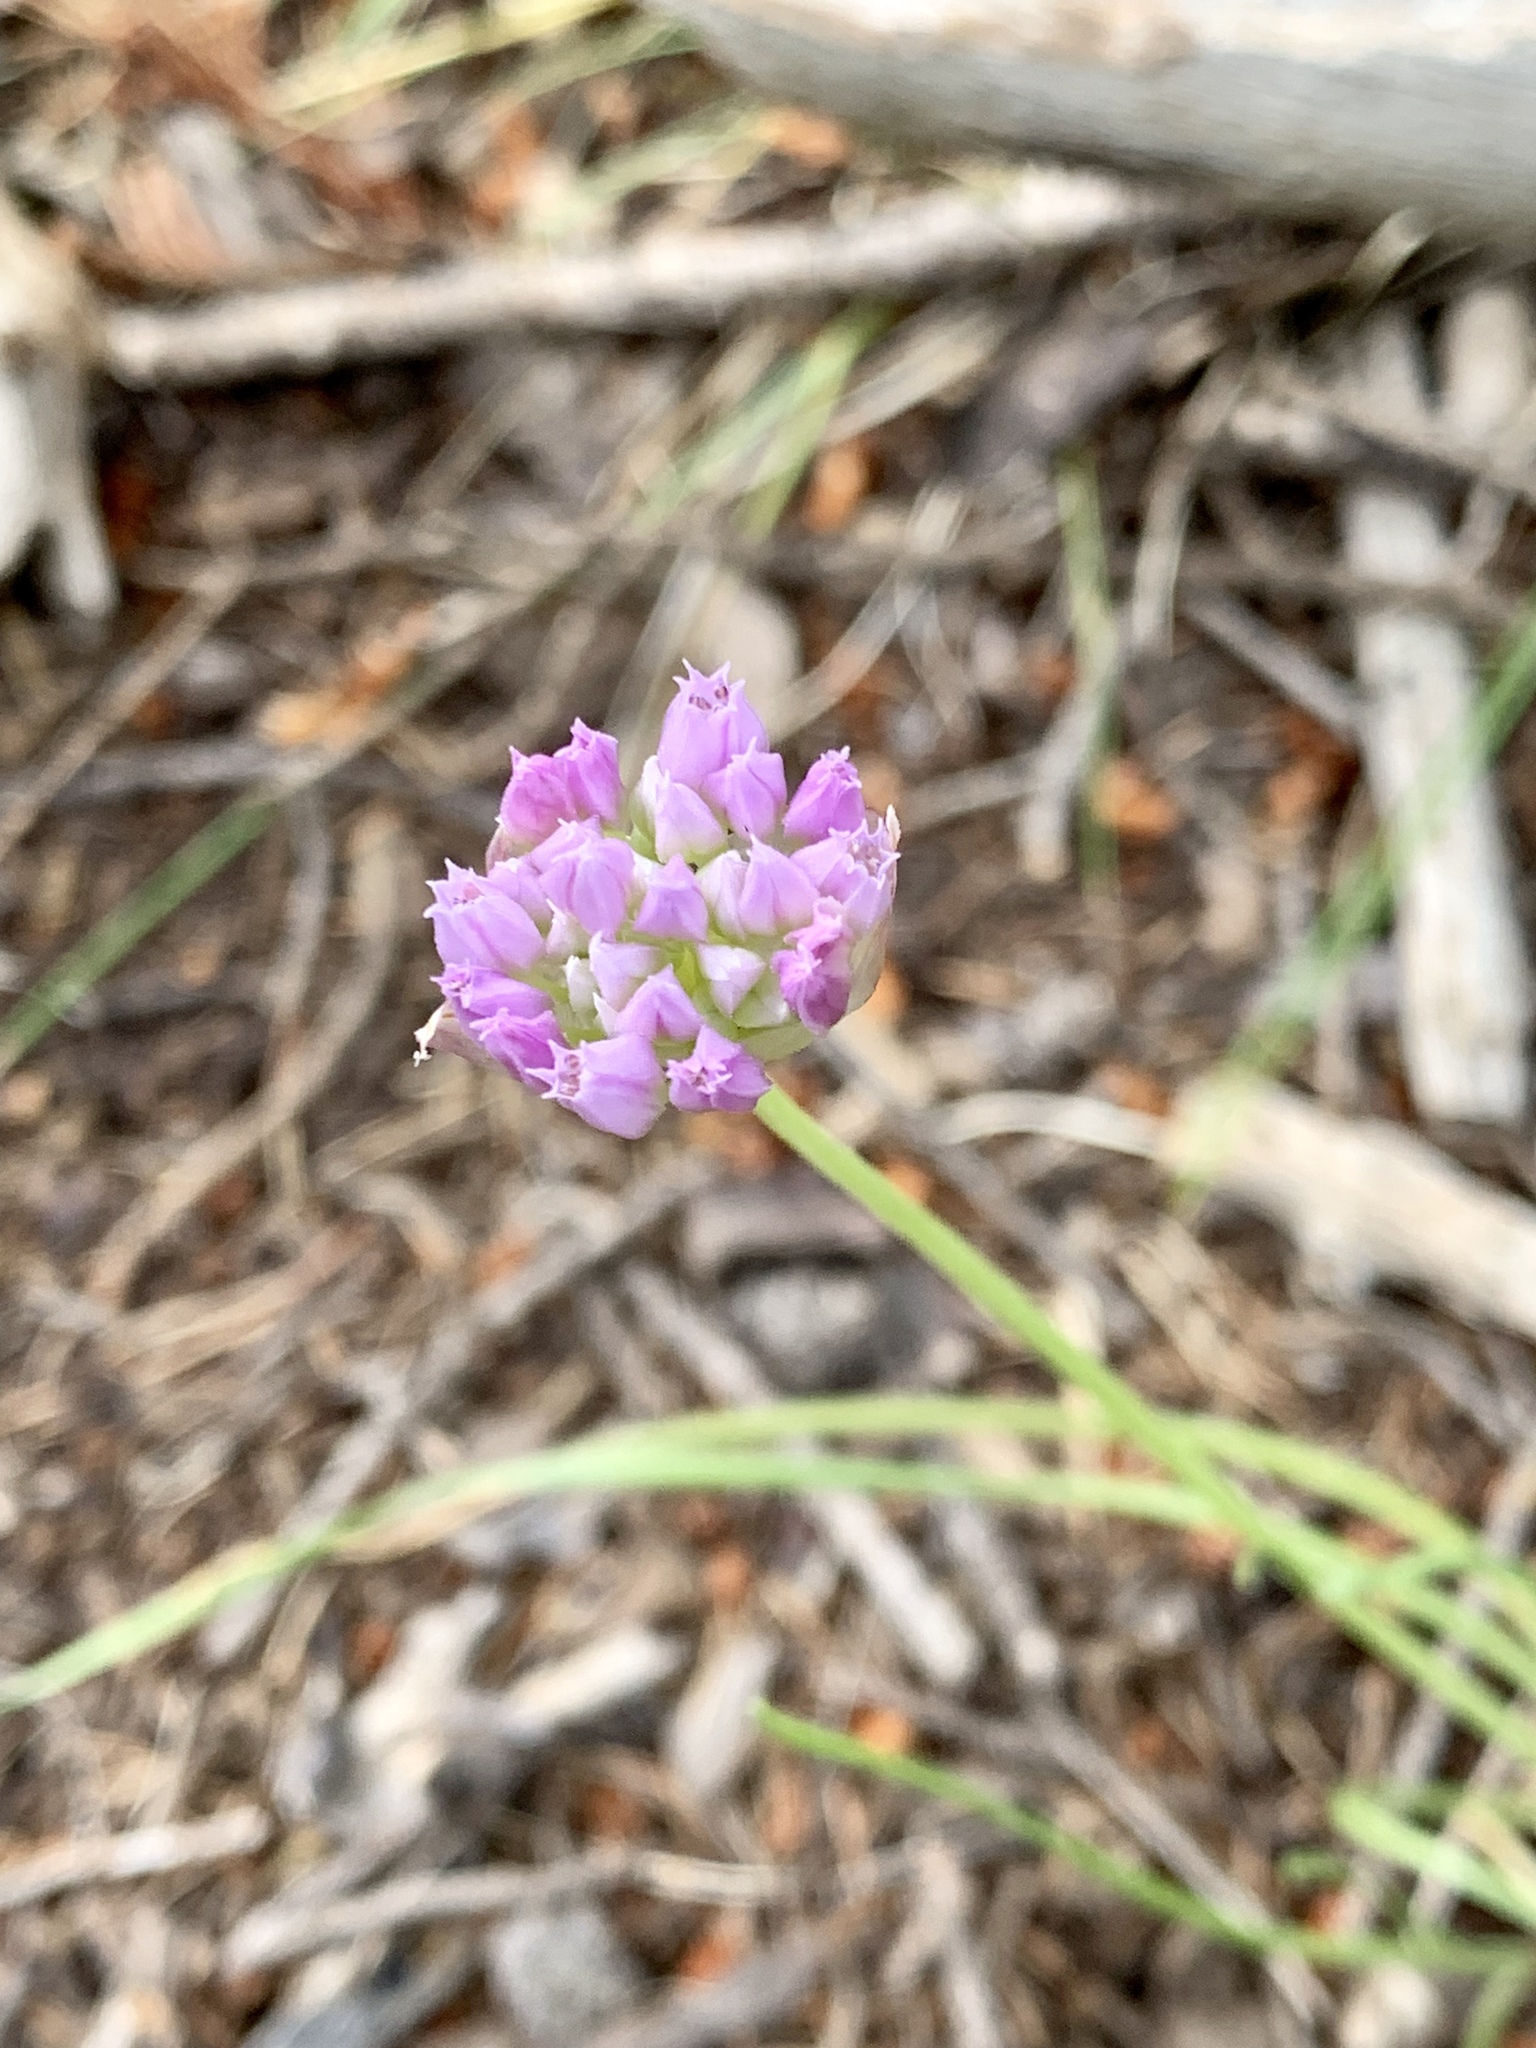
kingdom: Plantae
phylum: Tracheophyta
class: Liliopsida
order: Asparagales
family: Amaryllidaceae
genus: Allium
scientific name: Allium geyeri
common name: Geyer's onion
